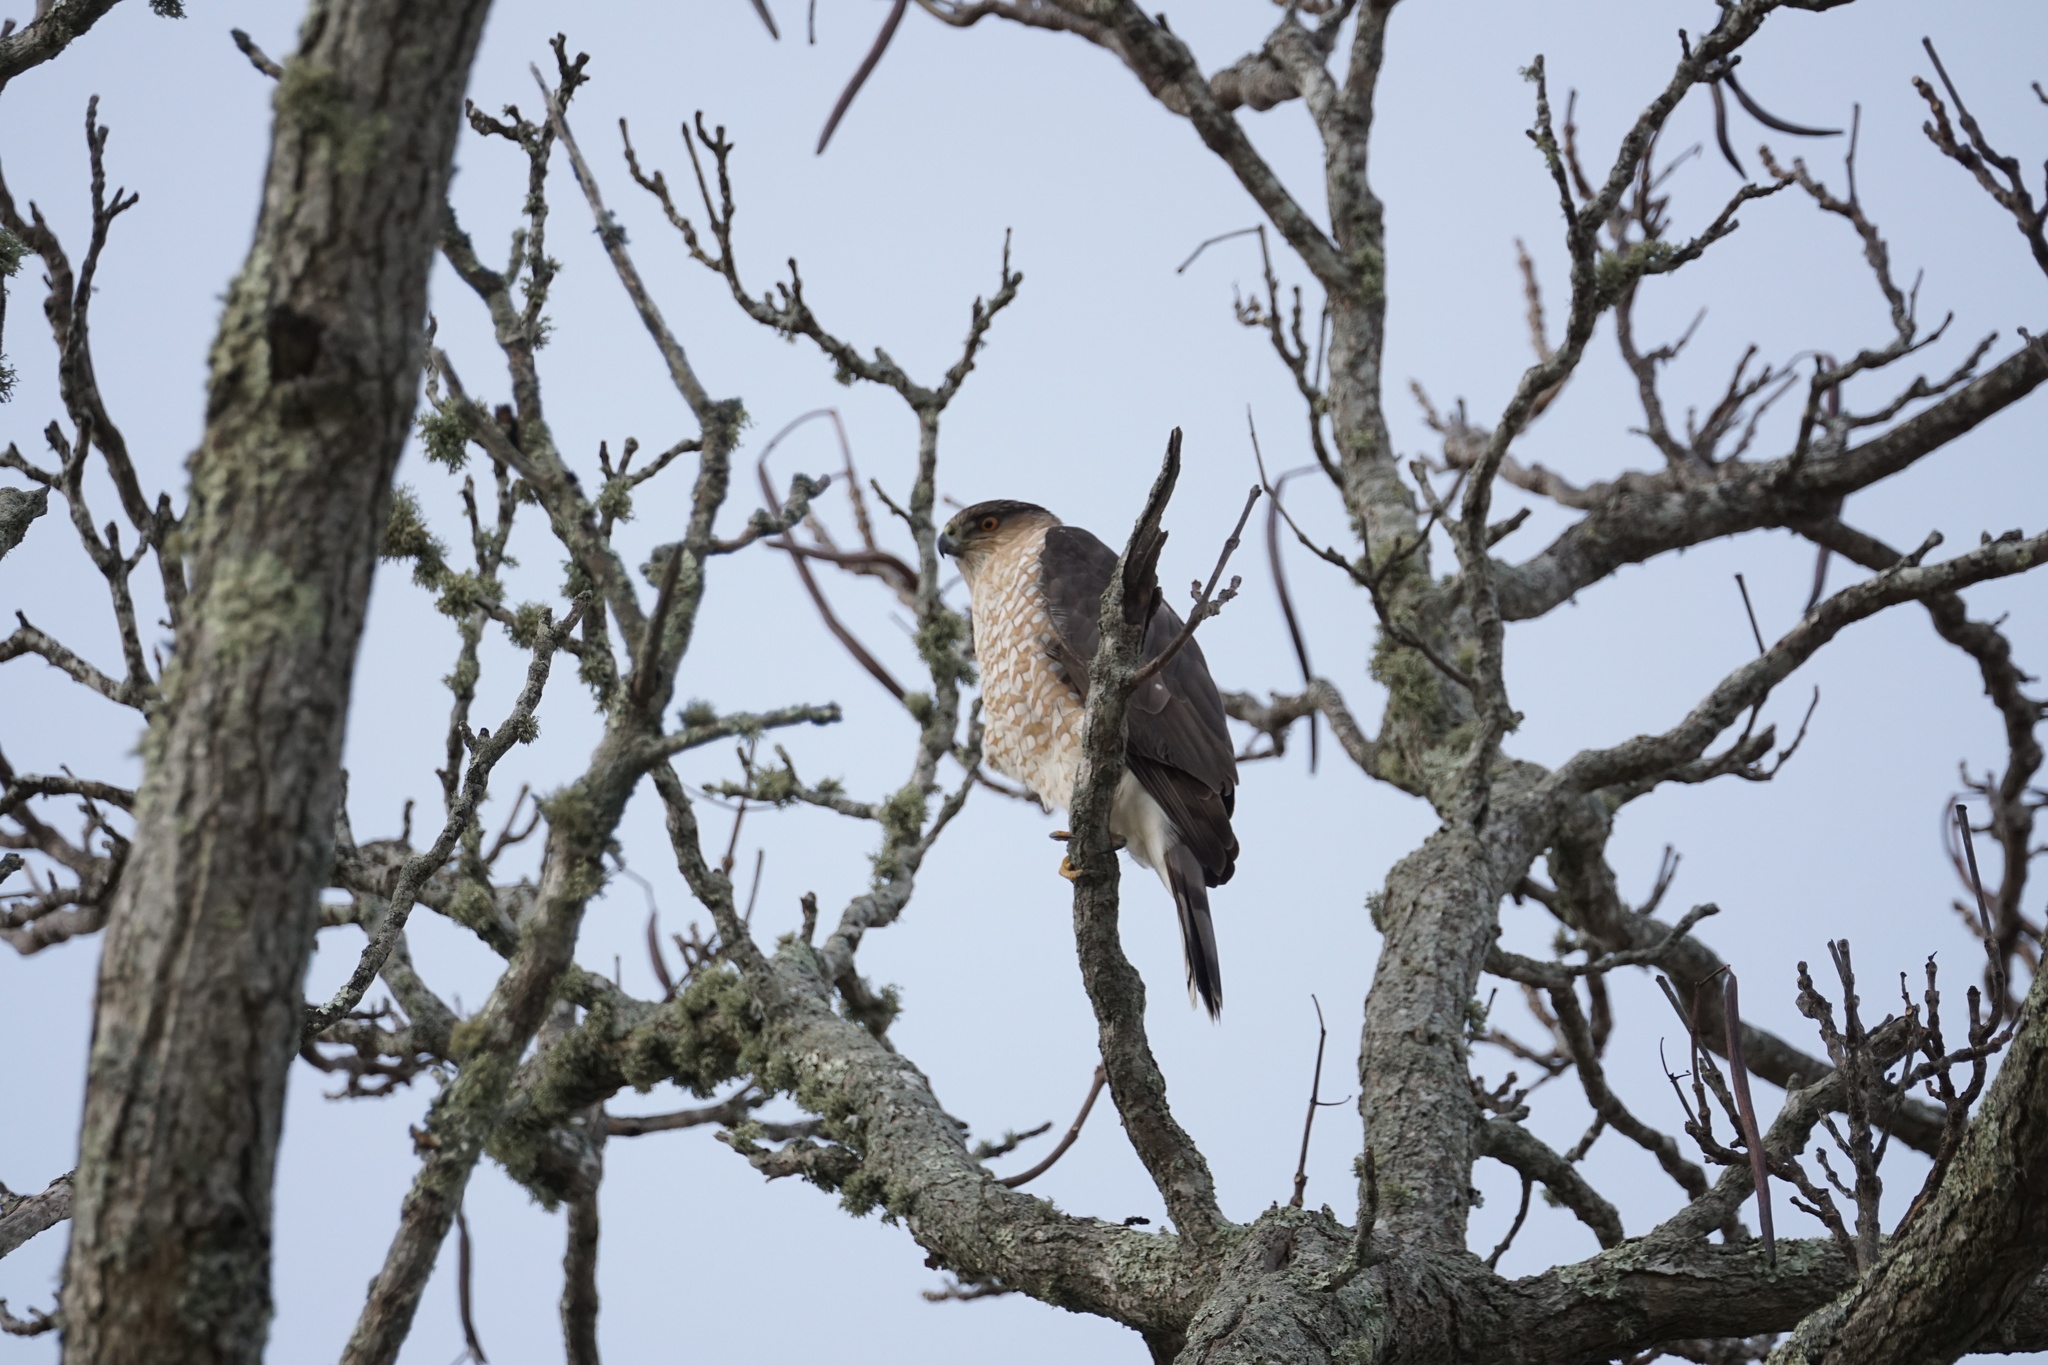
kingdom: Animalia
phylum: Chordata
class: Aves
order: Accipitriformes
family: Accipitridae
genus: Accipiter
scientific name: Accipiter cooperii
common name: Cooper's hawk
